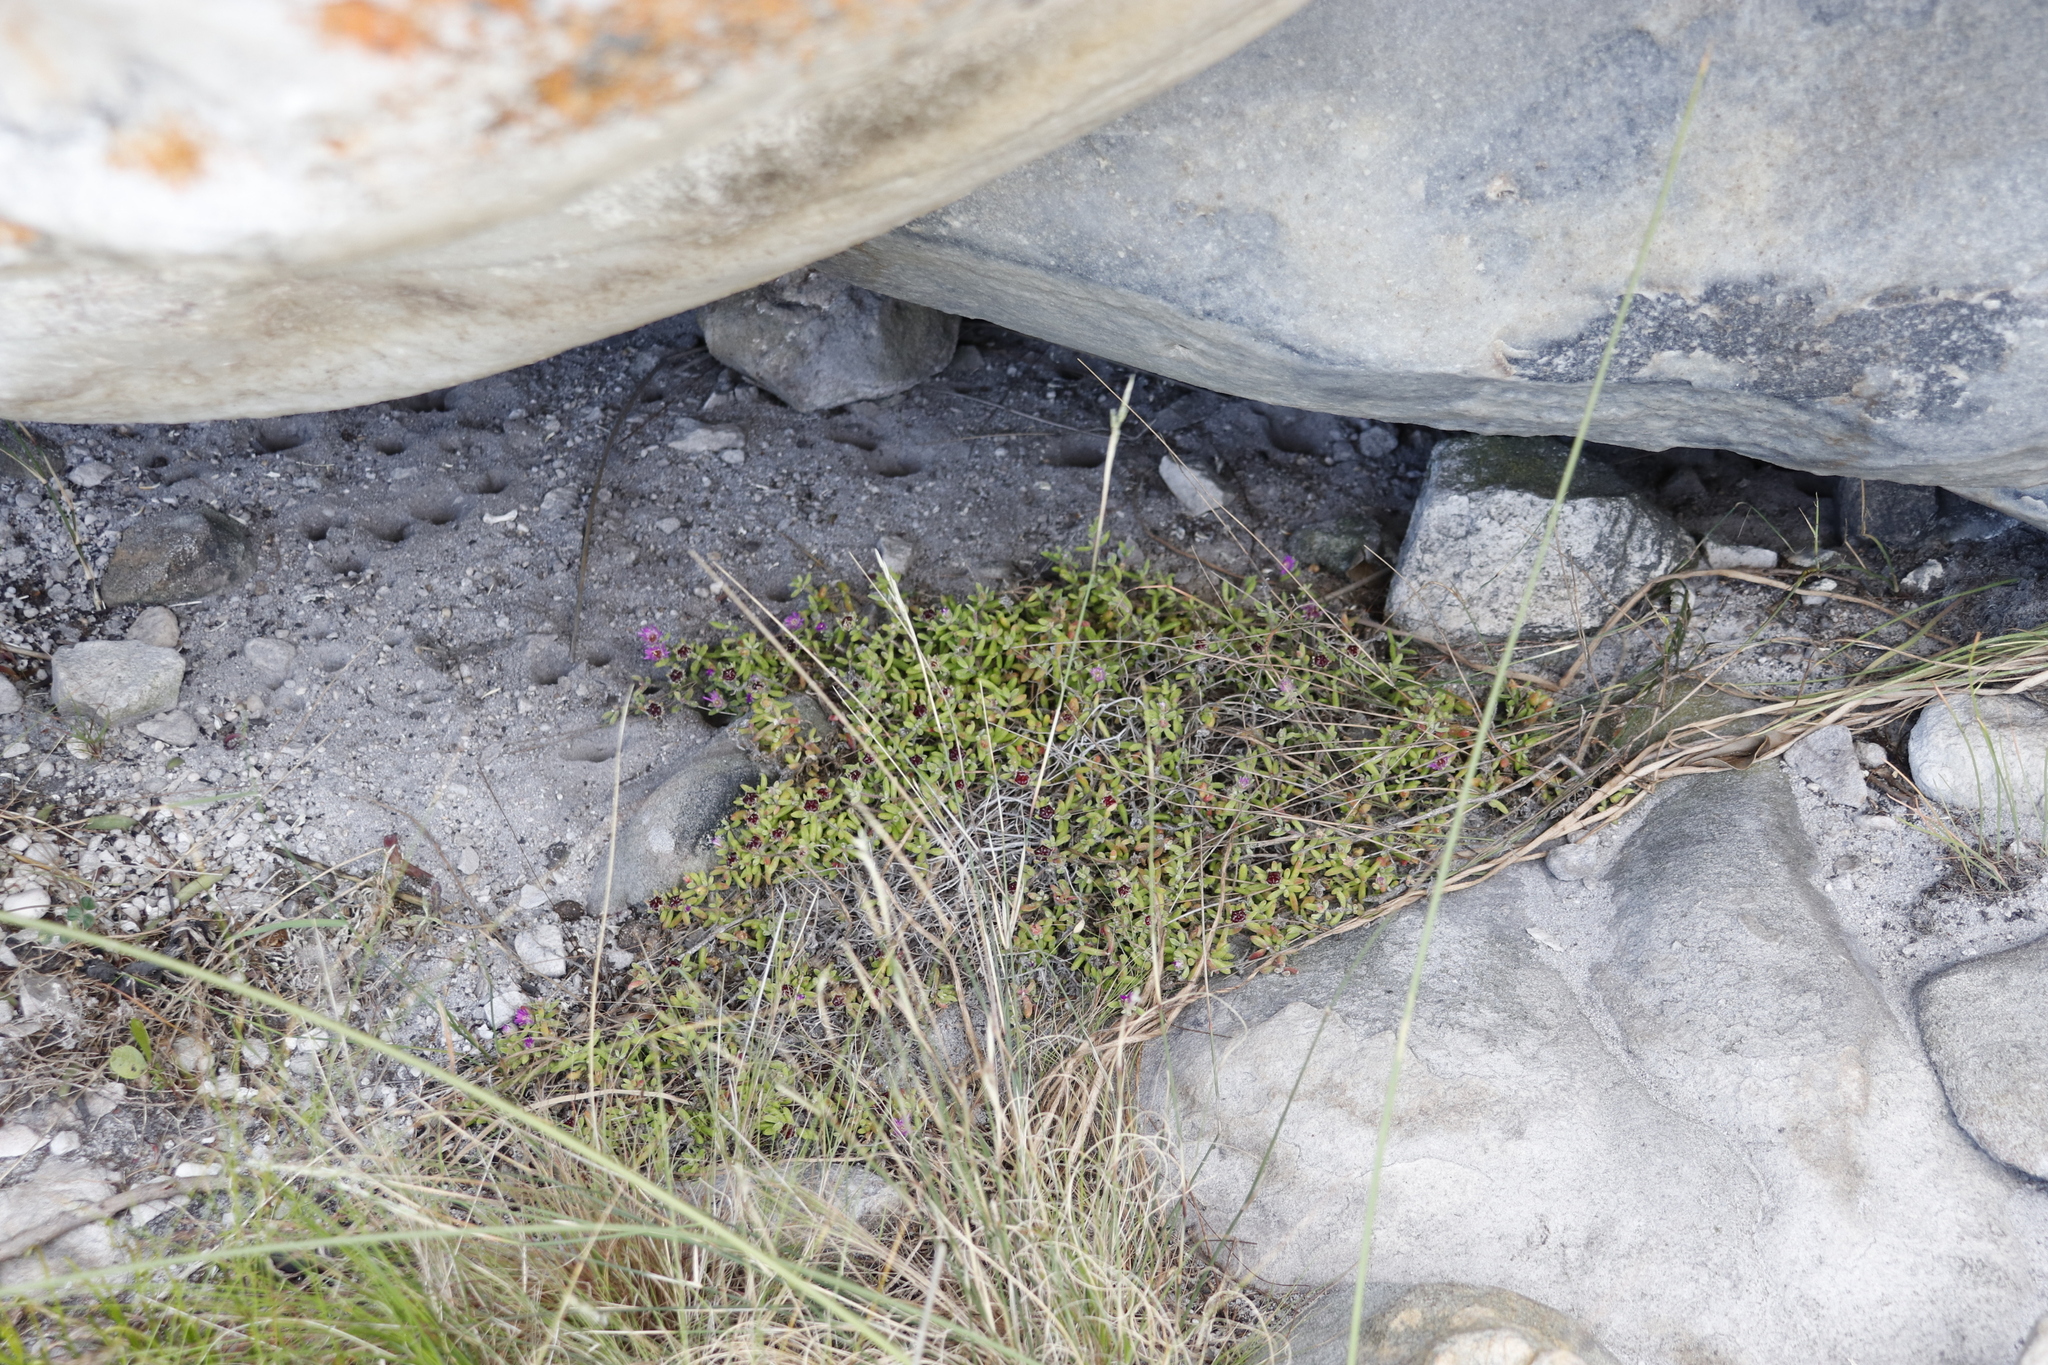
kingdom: Plantae
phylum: Tracheophyta
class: Magnoliopsida
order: Caryophyllales
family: Aizoaceae
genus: Drosanthemum
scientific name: Drosanthemum stokoei
